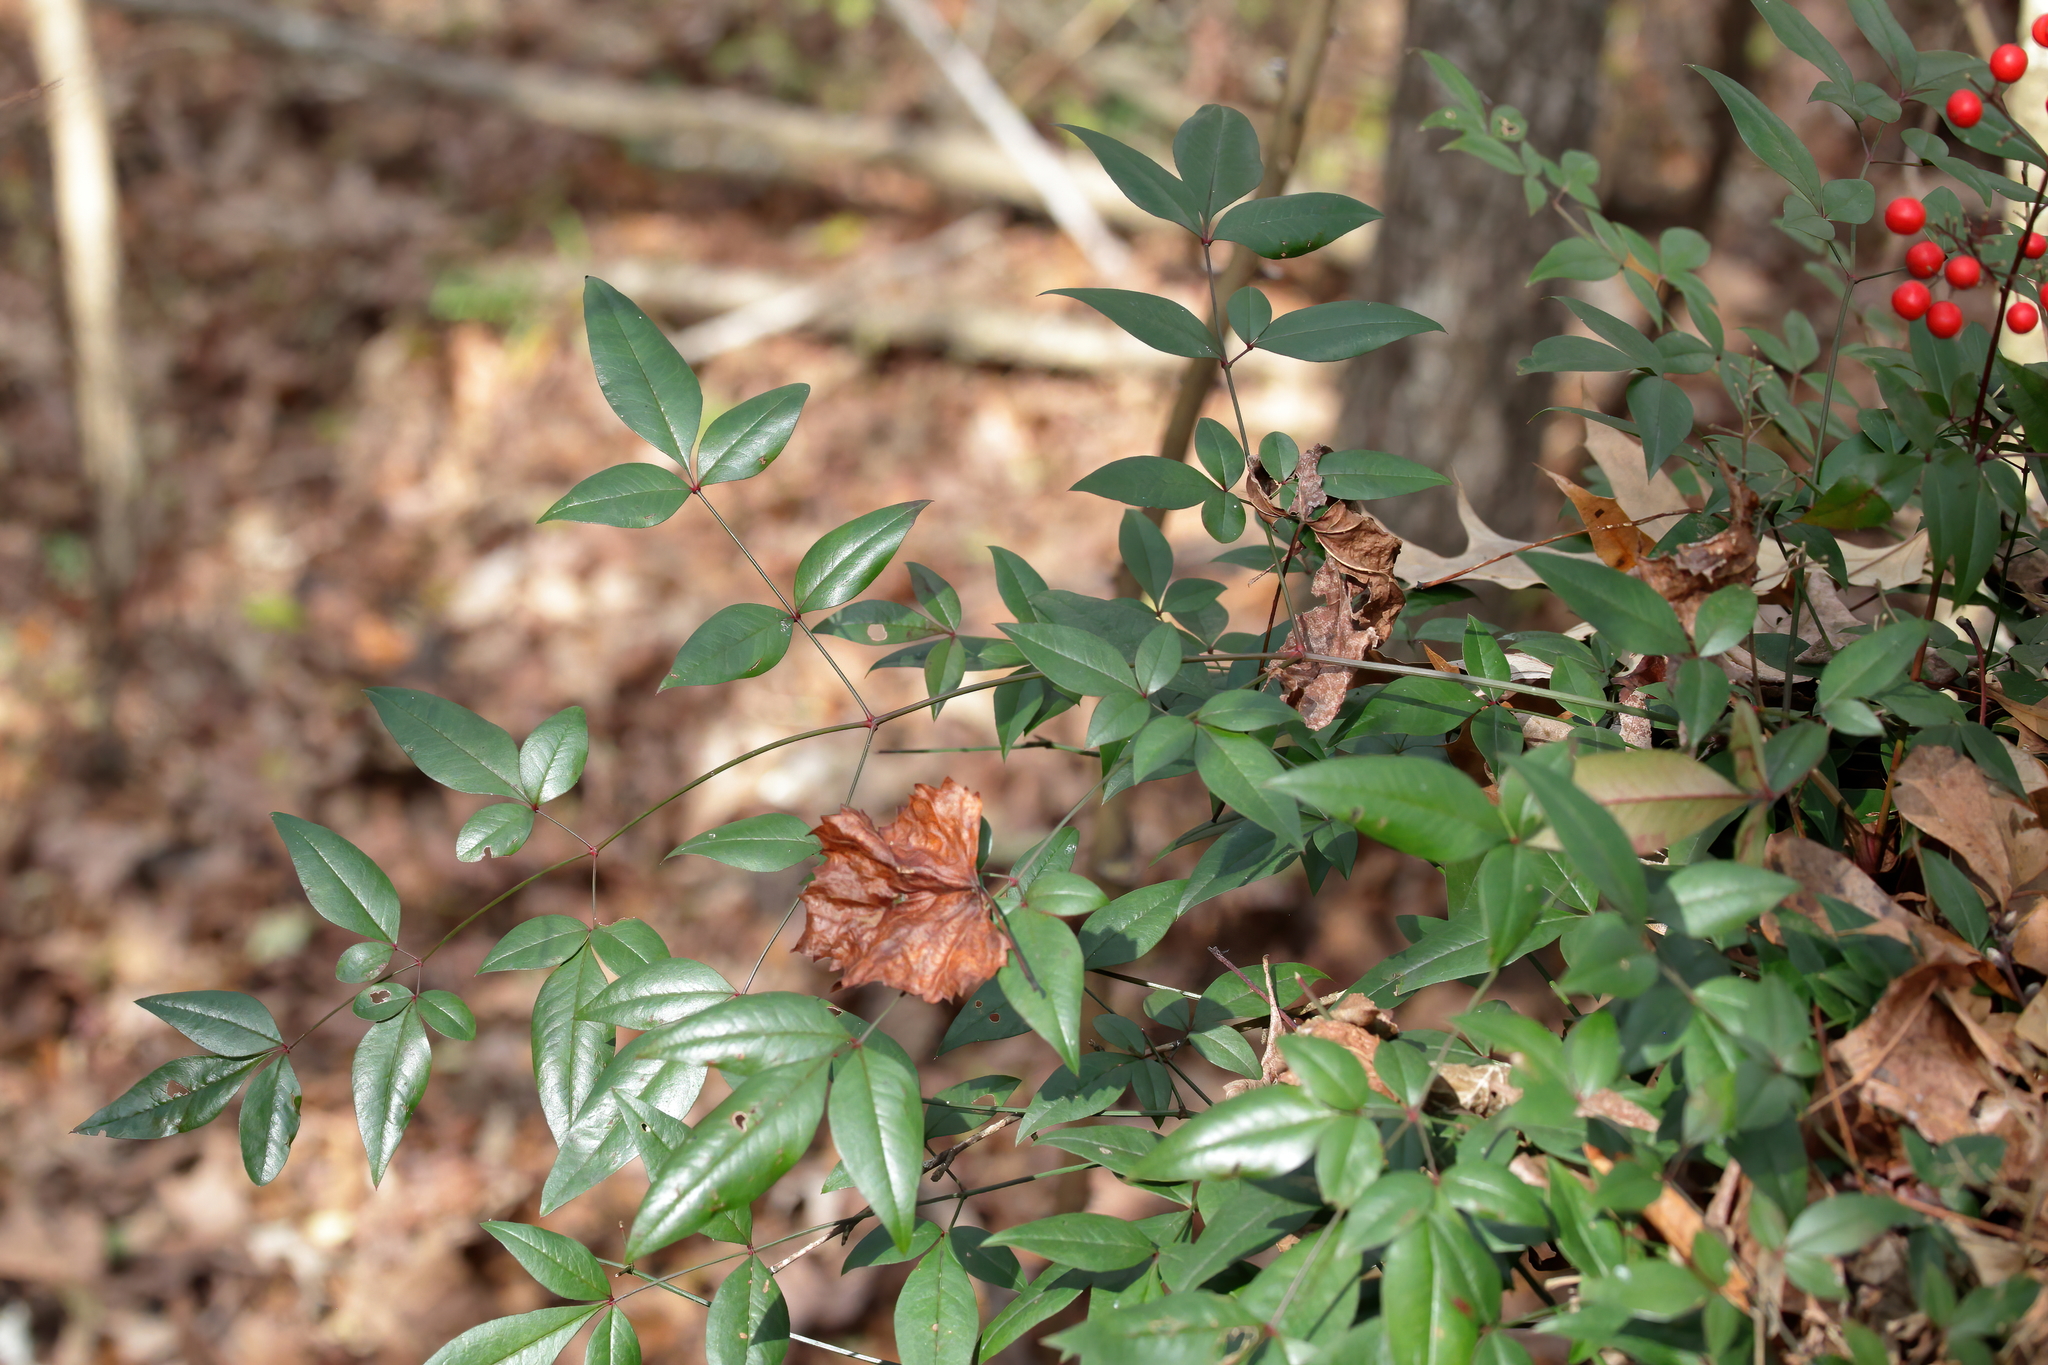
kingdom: Plantae
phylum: Tracheophyta
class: Magnoliopsida
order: Ranunculales
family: Berberidaceae
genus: Nandina
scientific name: Nandina domestica
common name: Sacred bamboo
